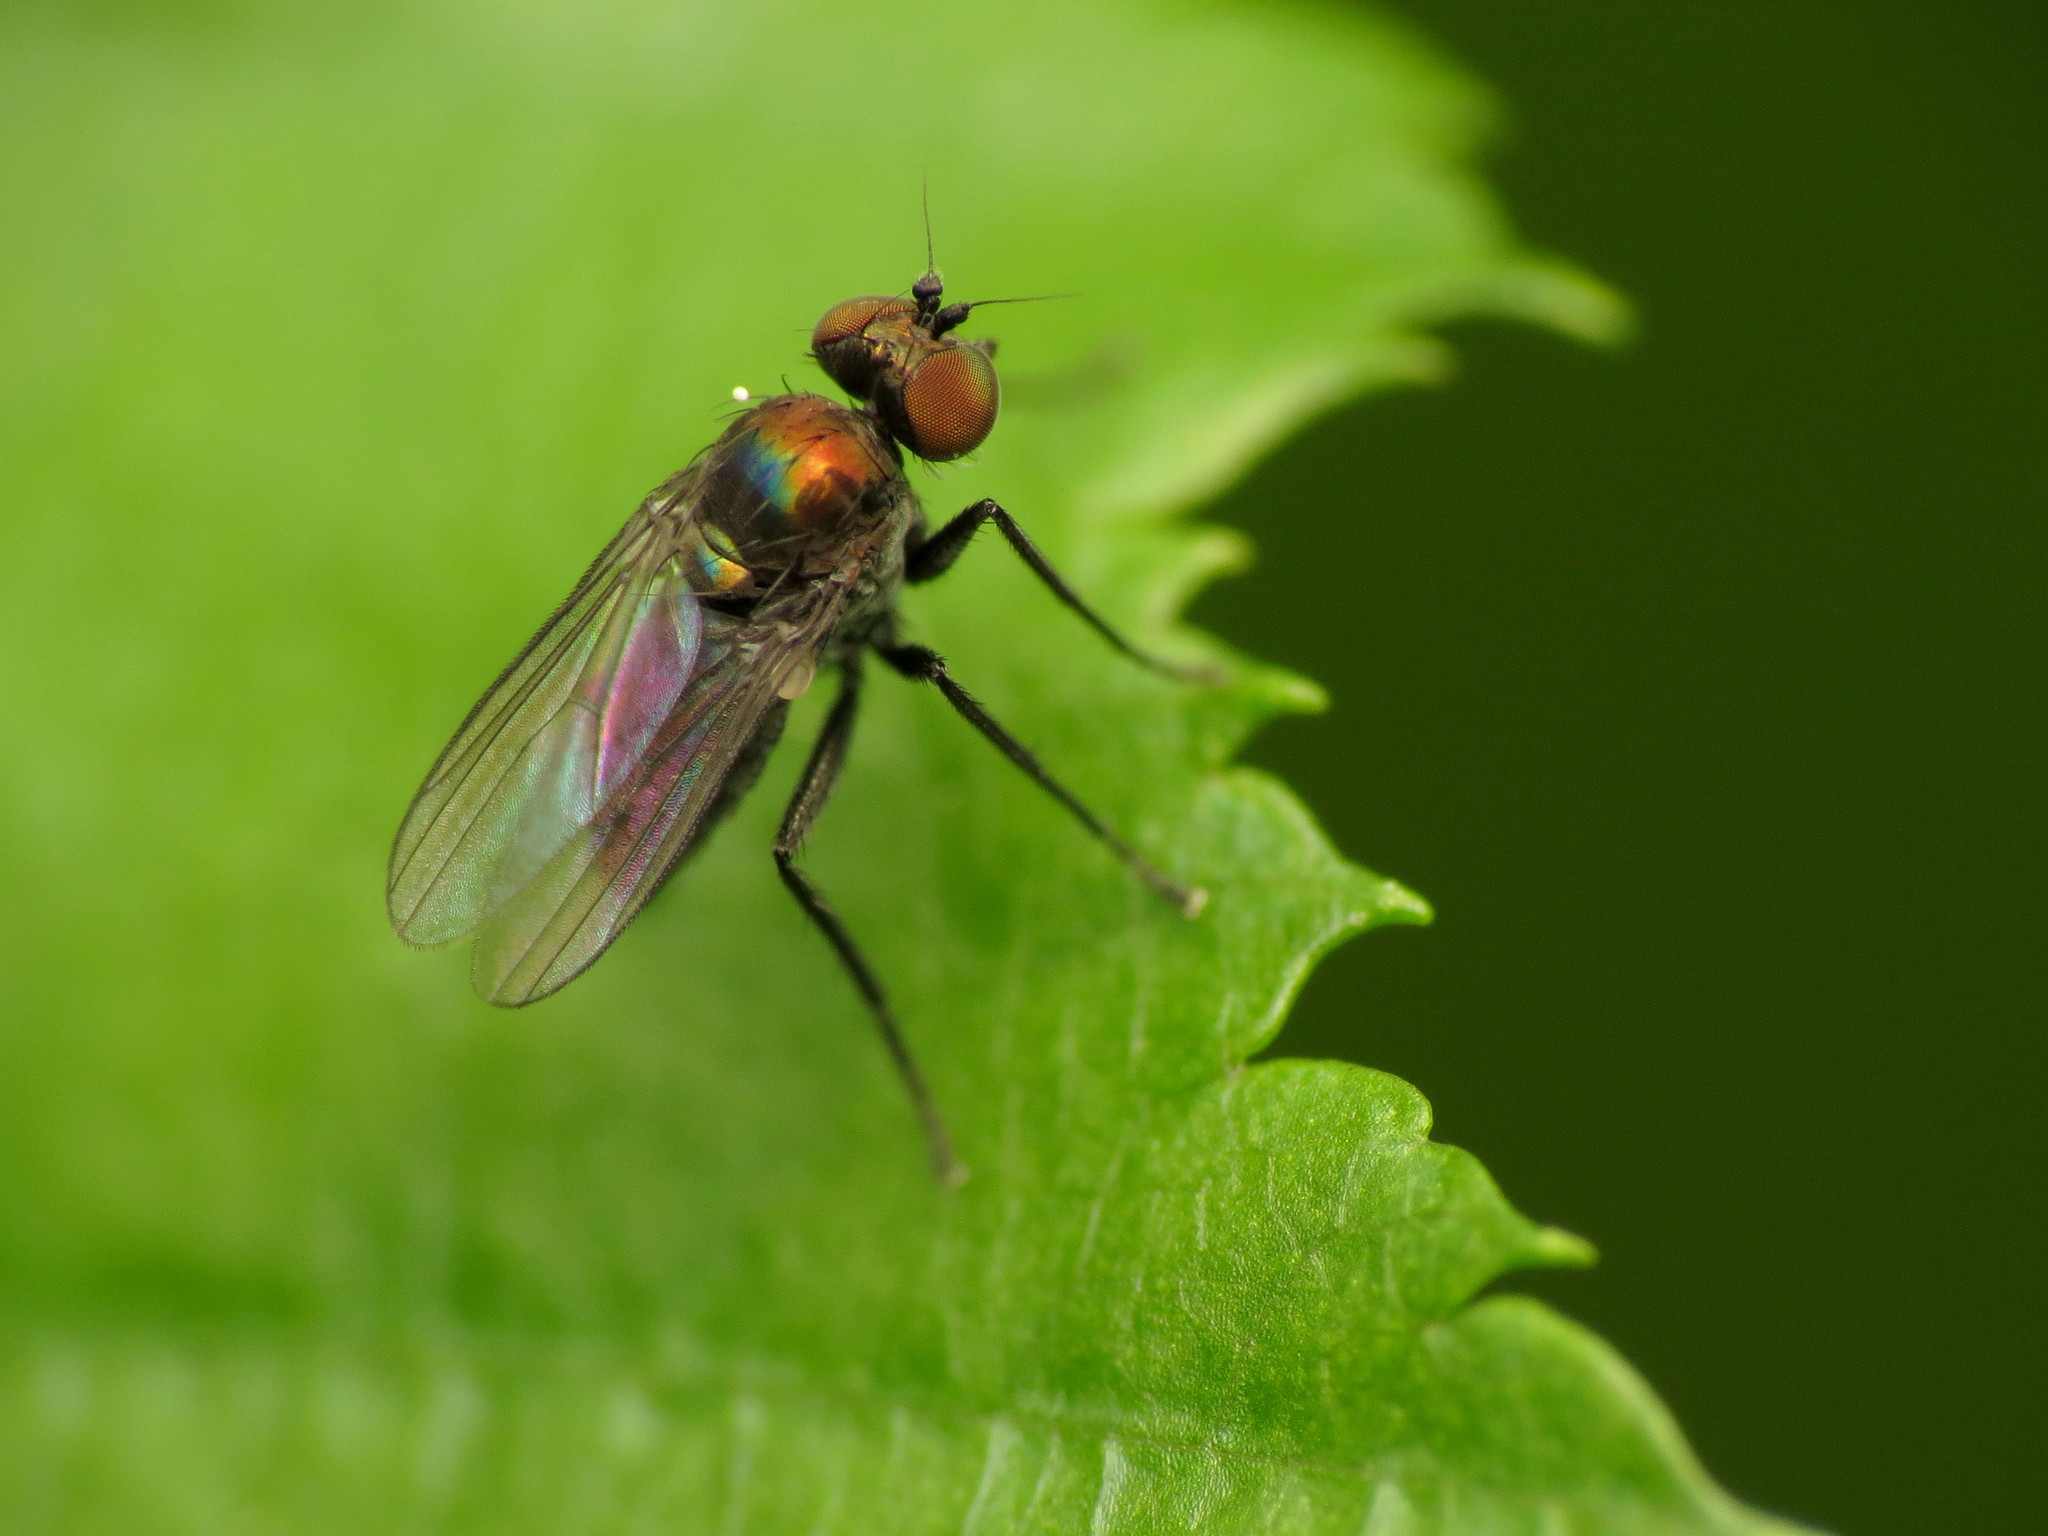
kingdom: Animalia
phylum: Arthropoda
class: Insecta
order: Diptera
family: Dolichopodidae
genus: Chrysotus
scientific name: Chrysotus subcostatus
